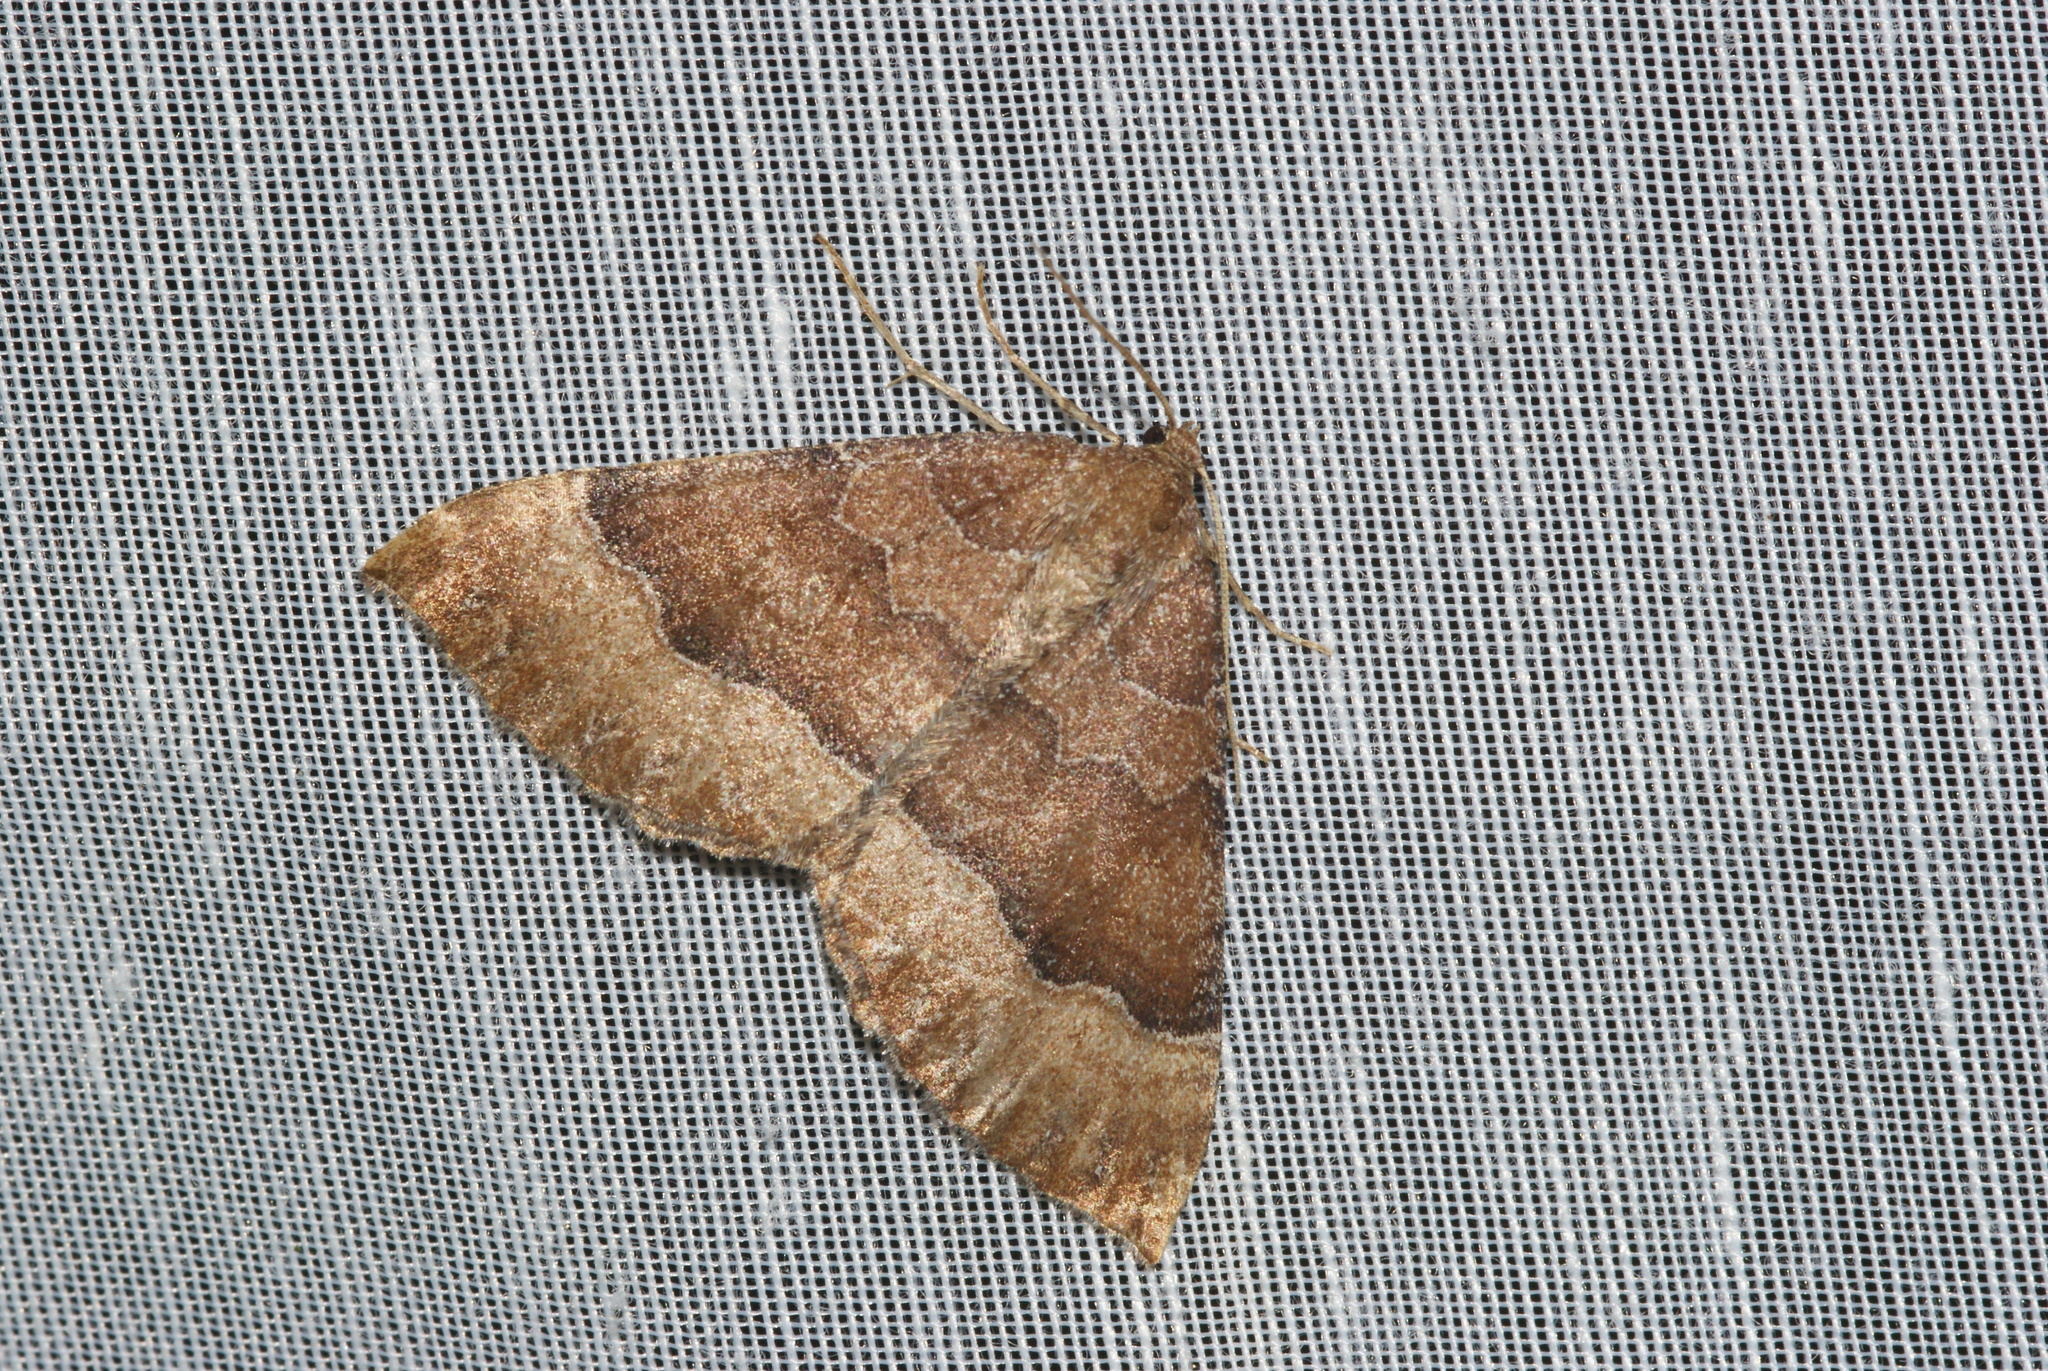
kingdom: Animalia
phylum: Arthropoda
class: Insecta
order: Lepidoptera
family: Geometridae
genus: Larentia
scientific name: Larentia clavaria
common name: Mallow
